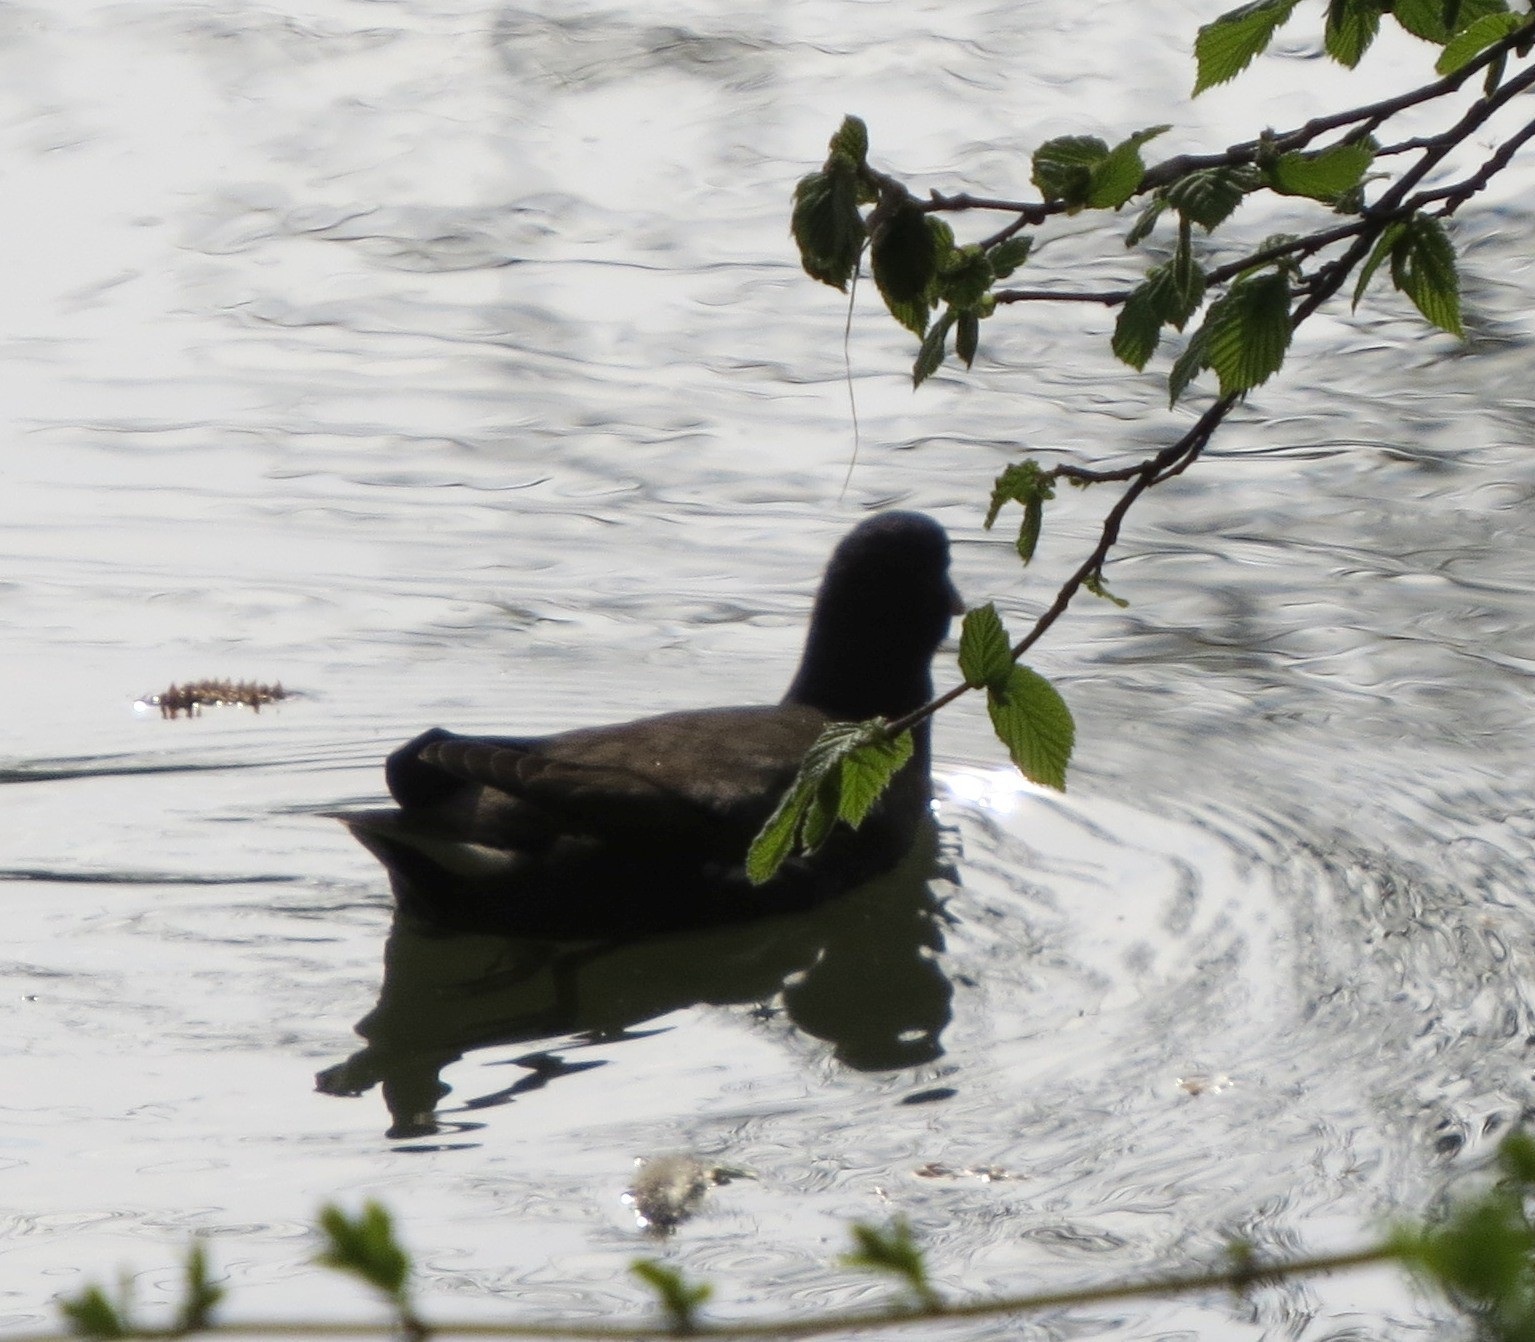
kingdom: Animalia
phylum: Chordata
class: Aves
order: Gruiformes
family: Rallidae
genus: Gallinula
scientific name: Gallinula chloropus
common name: Common moorhen
